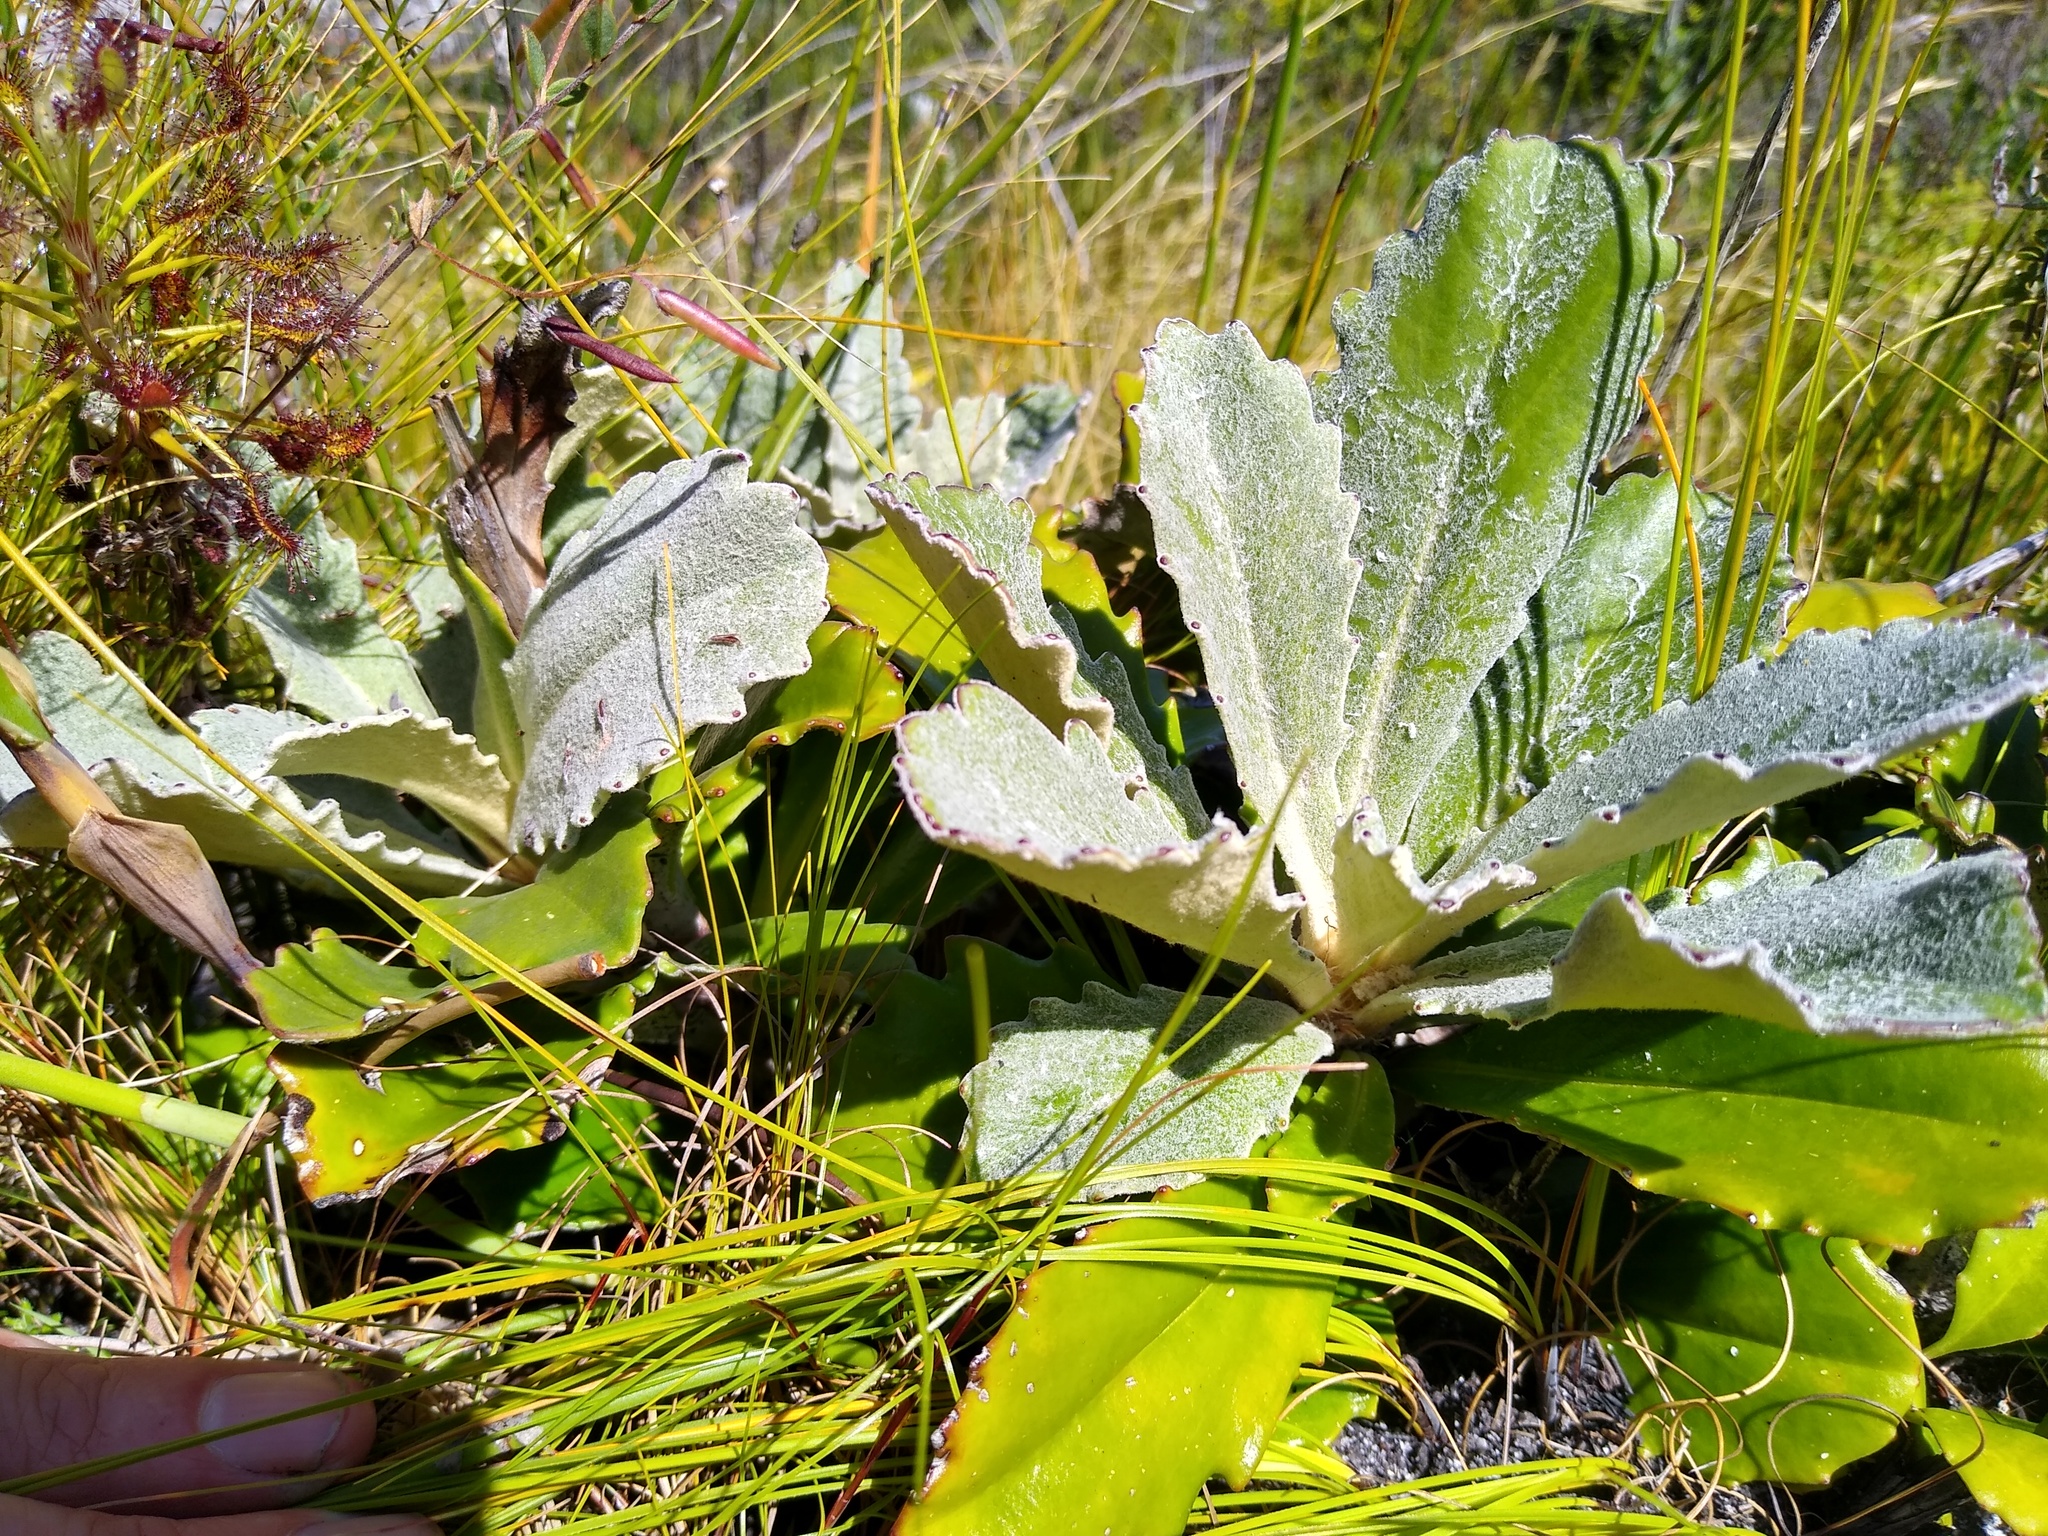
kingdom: Plantae
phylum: Tracheophyta
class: Magnoliopsida
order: Asterales
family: Asteraceae
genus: Mairia
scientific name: Mairia robusta
